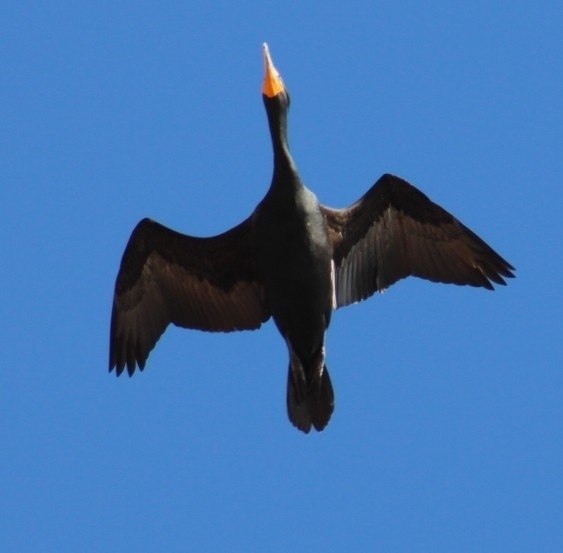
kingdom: Animalia
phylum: Chordata
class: Aves
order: Suliformes
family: Phalacrocoracidae
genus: Phalacrocorax
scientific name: Phalacrocorax auritus
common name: Double-crested cormorant
